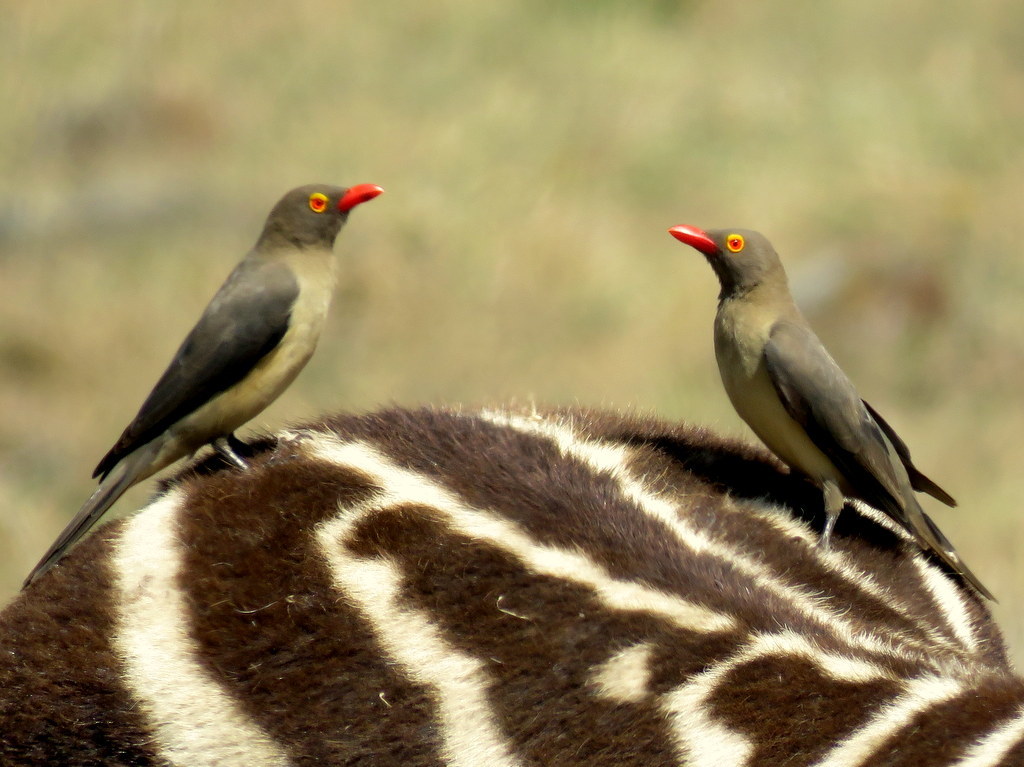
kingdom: Animalia
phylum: Chordata
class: Aves
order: Passeriformes
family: Buphagidae
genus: Buphagus
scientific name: Buphagus erythrorhynchus
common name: Red-billed oxpecker
